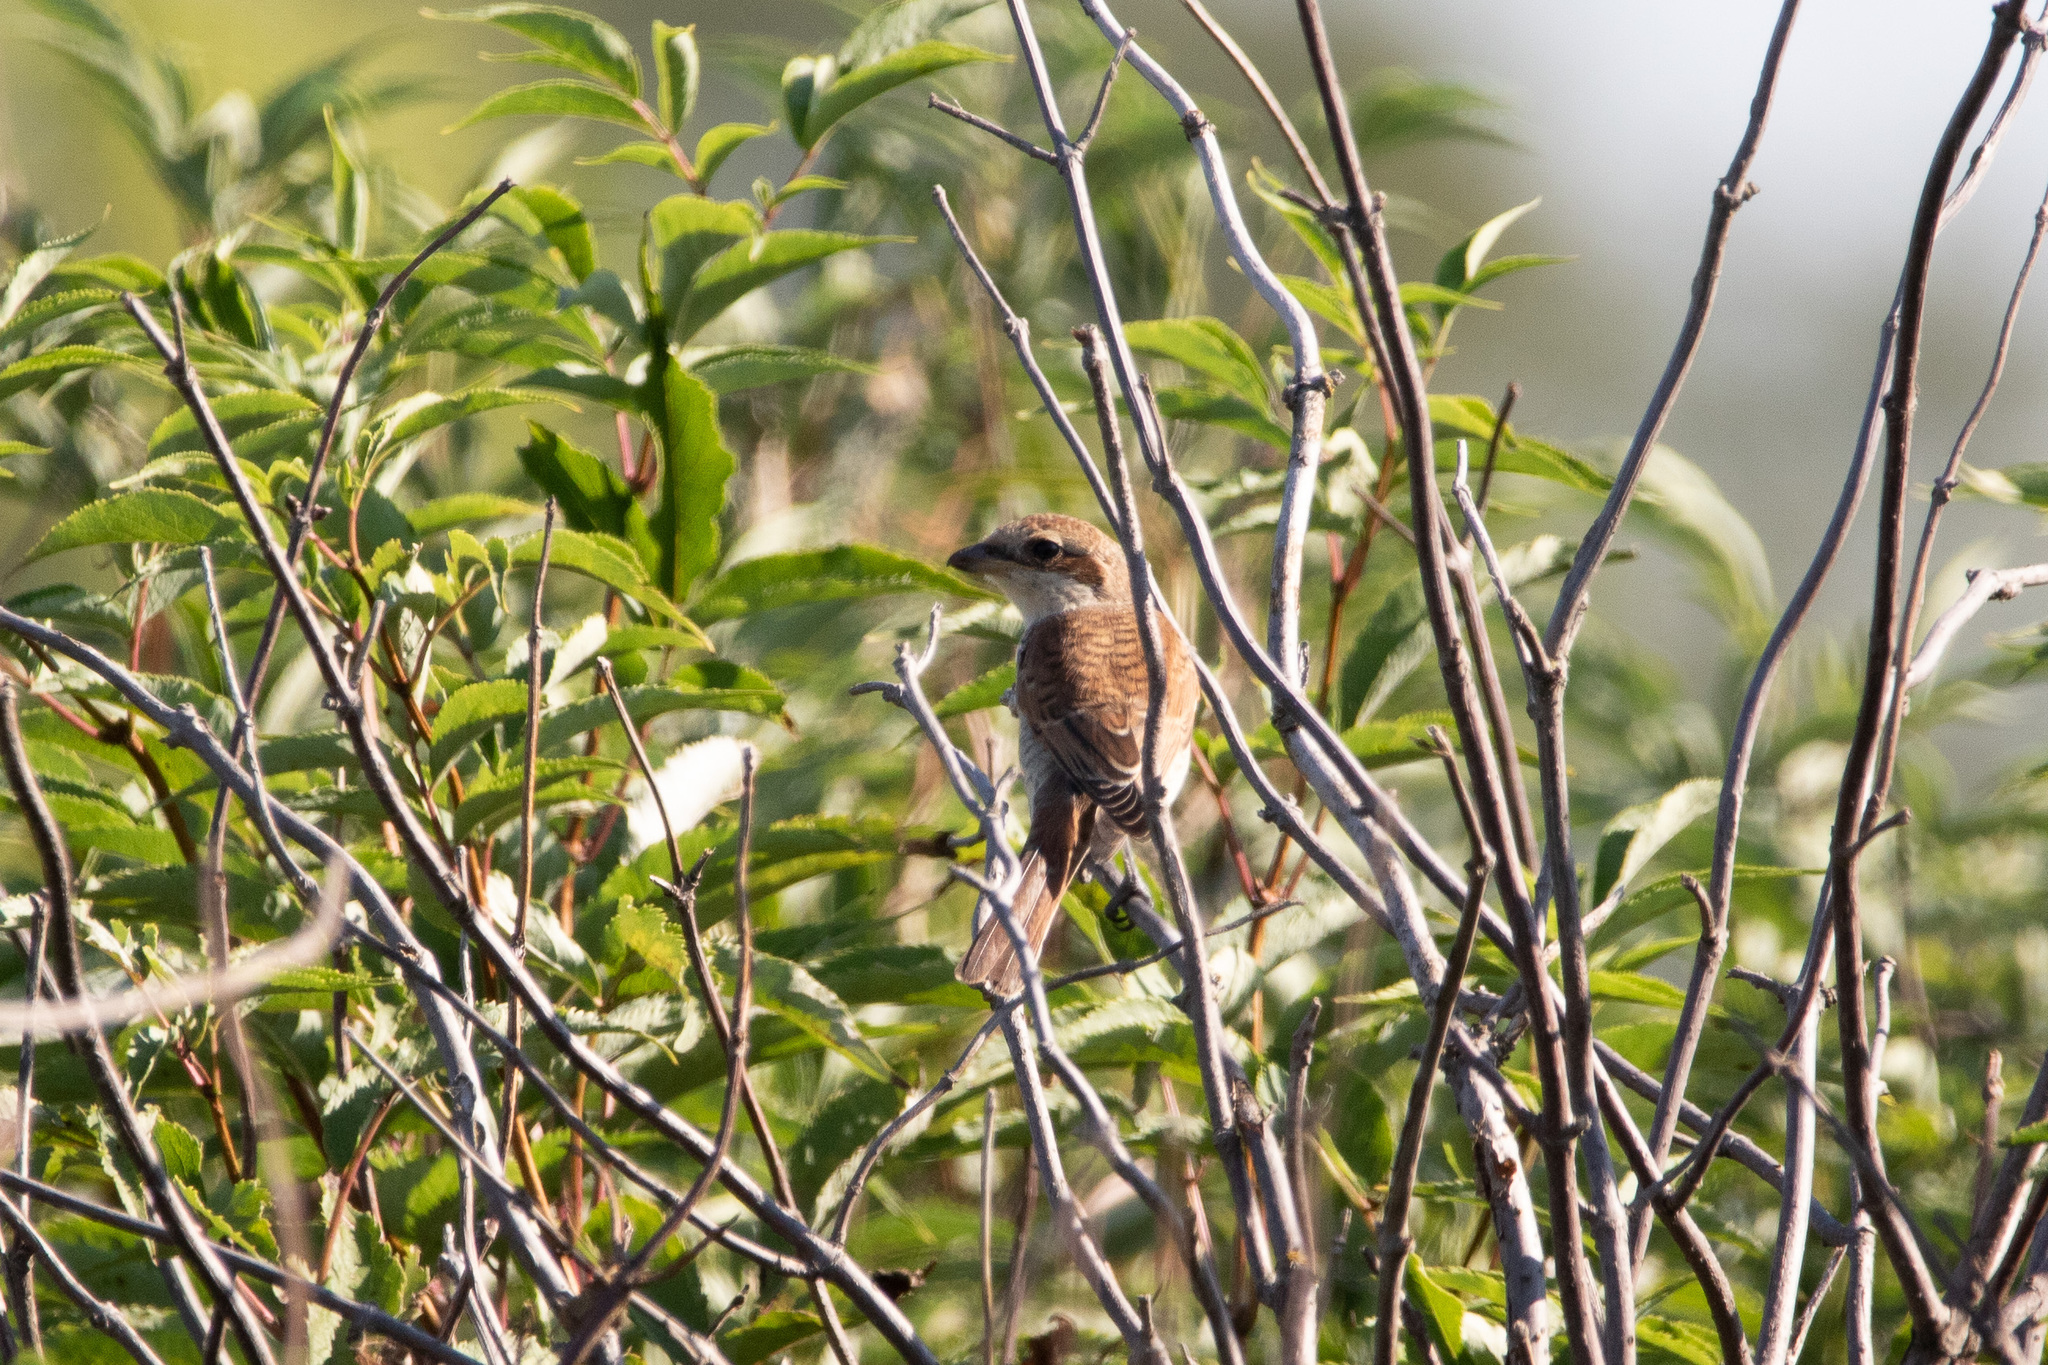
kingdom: Animalia
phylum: Chordata
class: Aves
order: Passeriformes
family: Laniidae
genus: Lanius
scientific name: Lanius collurio
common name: Red-backed shrike
